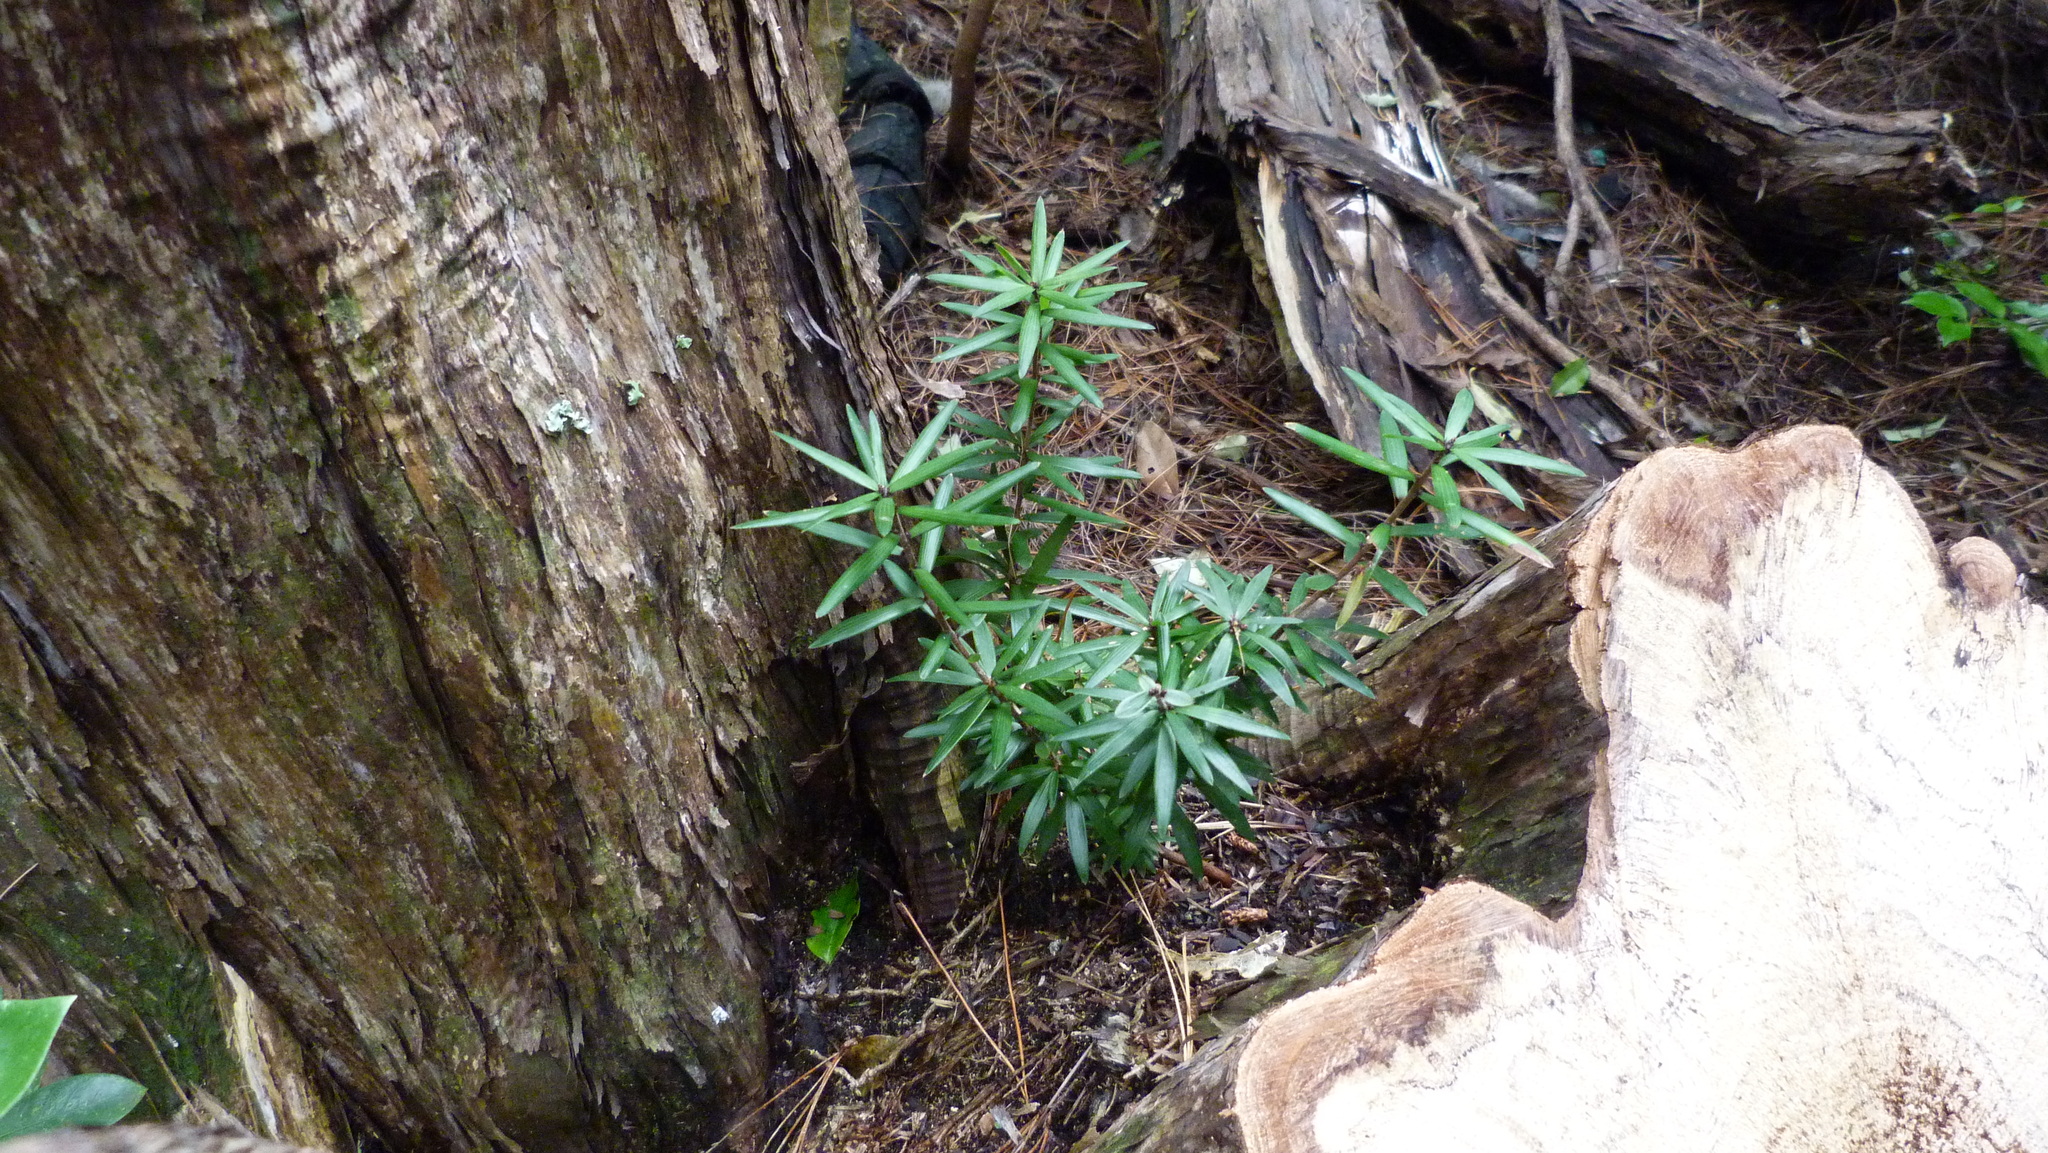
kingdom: Plantae
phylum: Tracheophyta
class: Magnoliopsida
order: Ericales
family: Ericaceae
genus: Leucopogon
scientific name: Leucopogon fasciculatus
